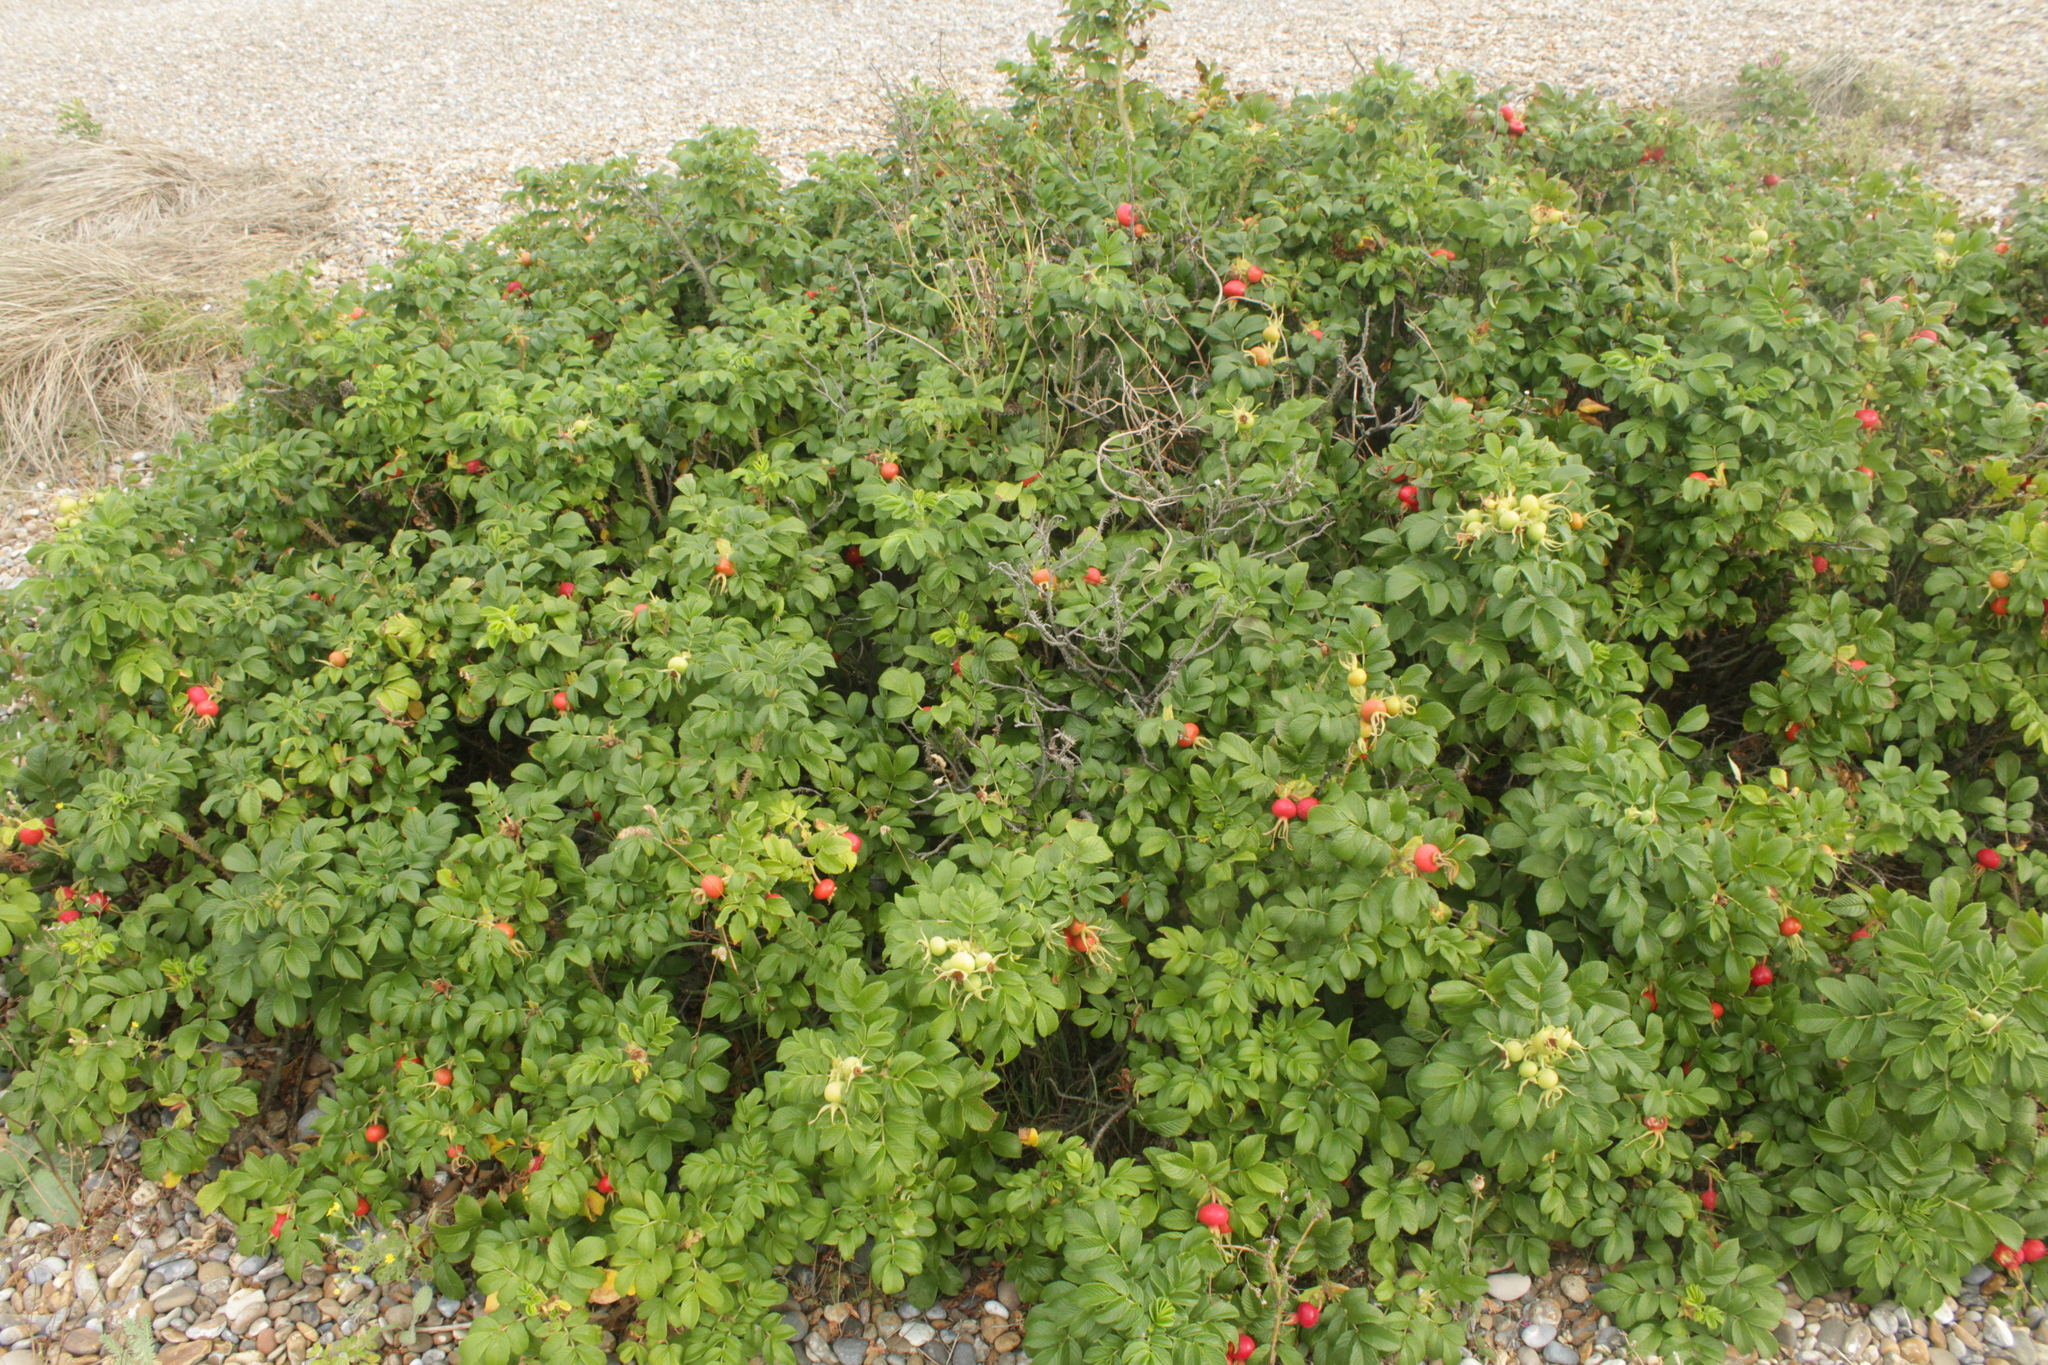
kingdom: Plantae
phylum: Tracheophyta
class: Magnoliopsida
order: Rosales
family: Rosaceae
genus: Rosa
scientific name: Rosa rugosa
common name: Japanese rose
